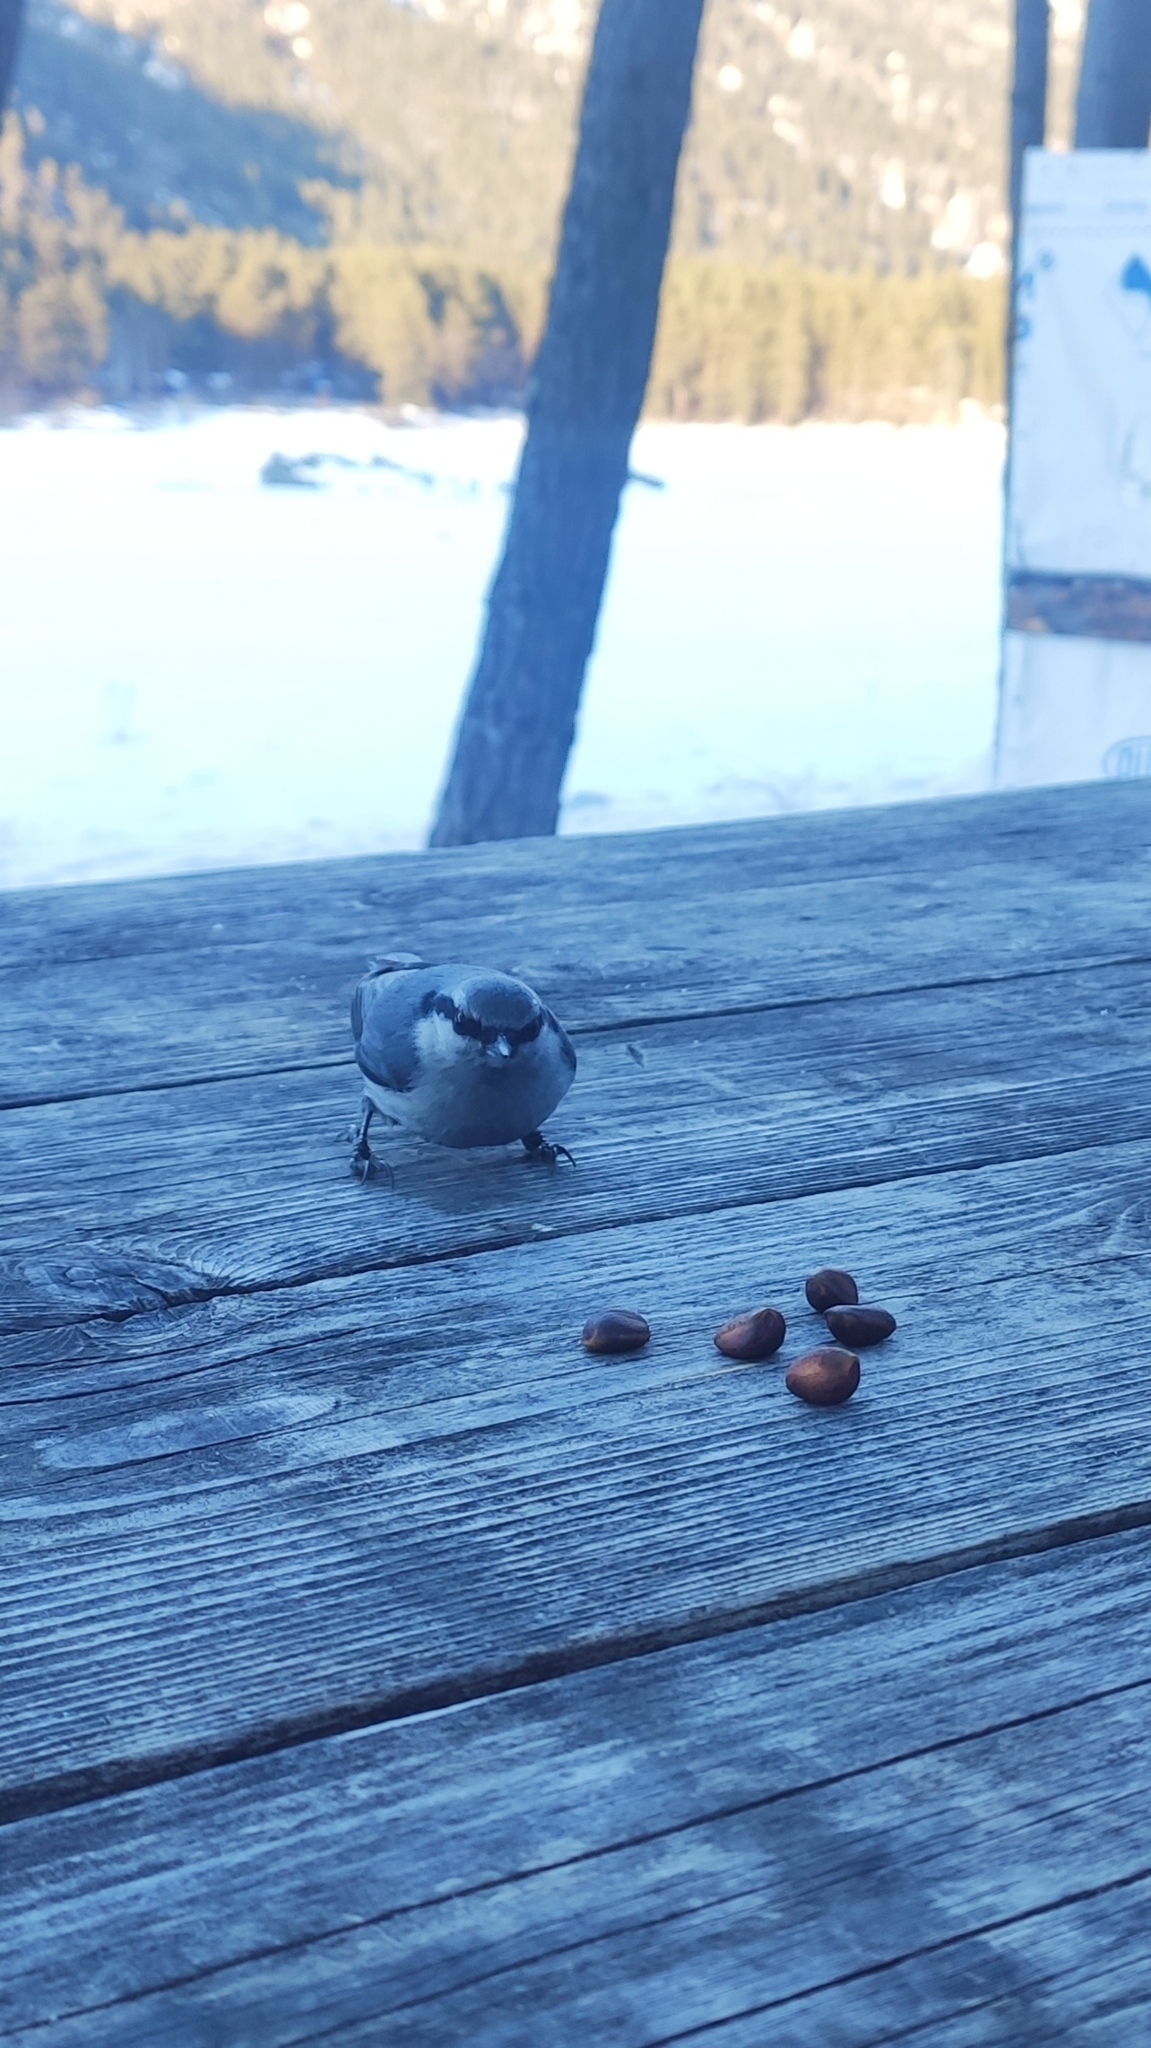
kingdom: Animalia
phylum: Chordata
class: Aves
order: Passeriformes
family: Sittidae
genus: Sitta
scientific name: Sitta europaea
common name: Eurasian nuthatch
